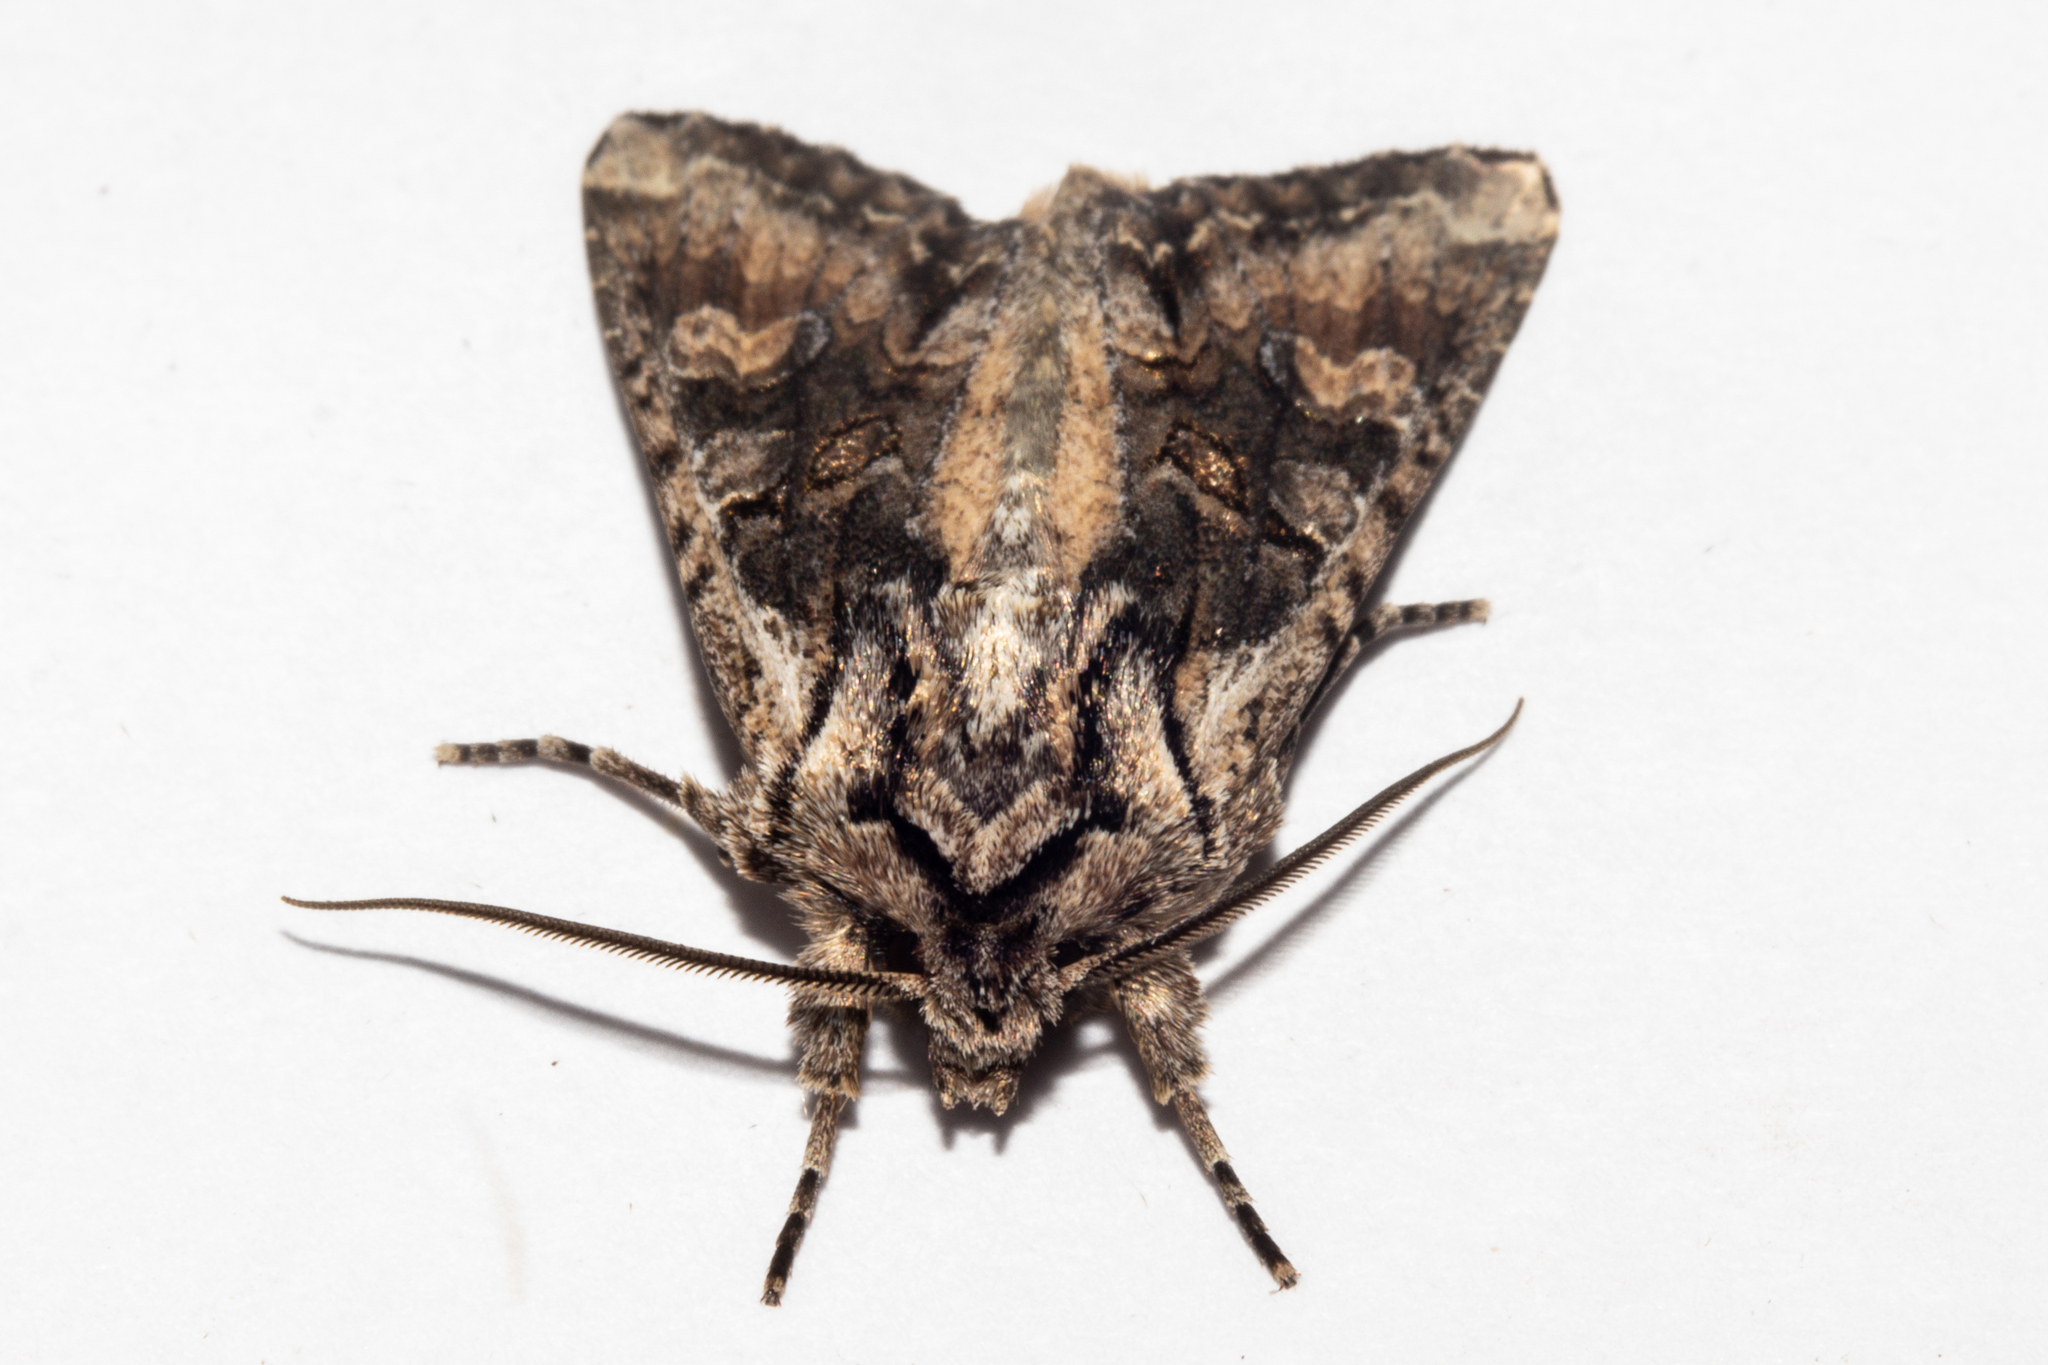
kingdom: Animalia
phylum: Arthropoda
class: Insecta
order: Lepidoptera
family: Noctuidae
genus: Ichneutica
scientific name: Ichneutica mutans
